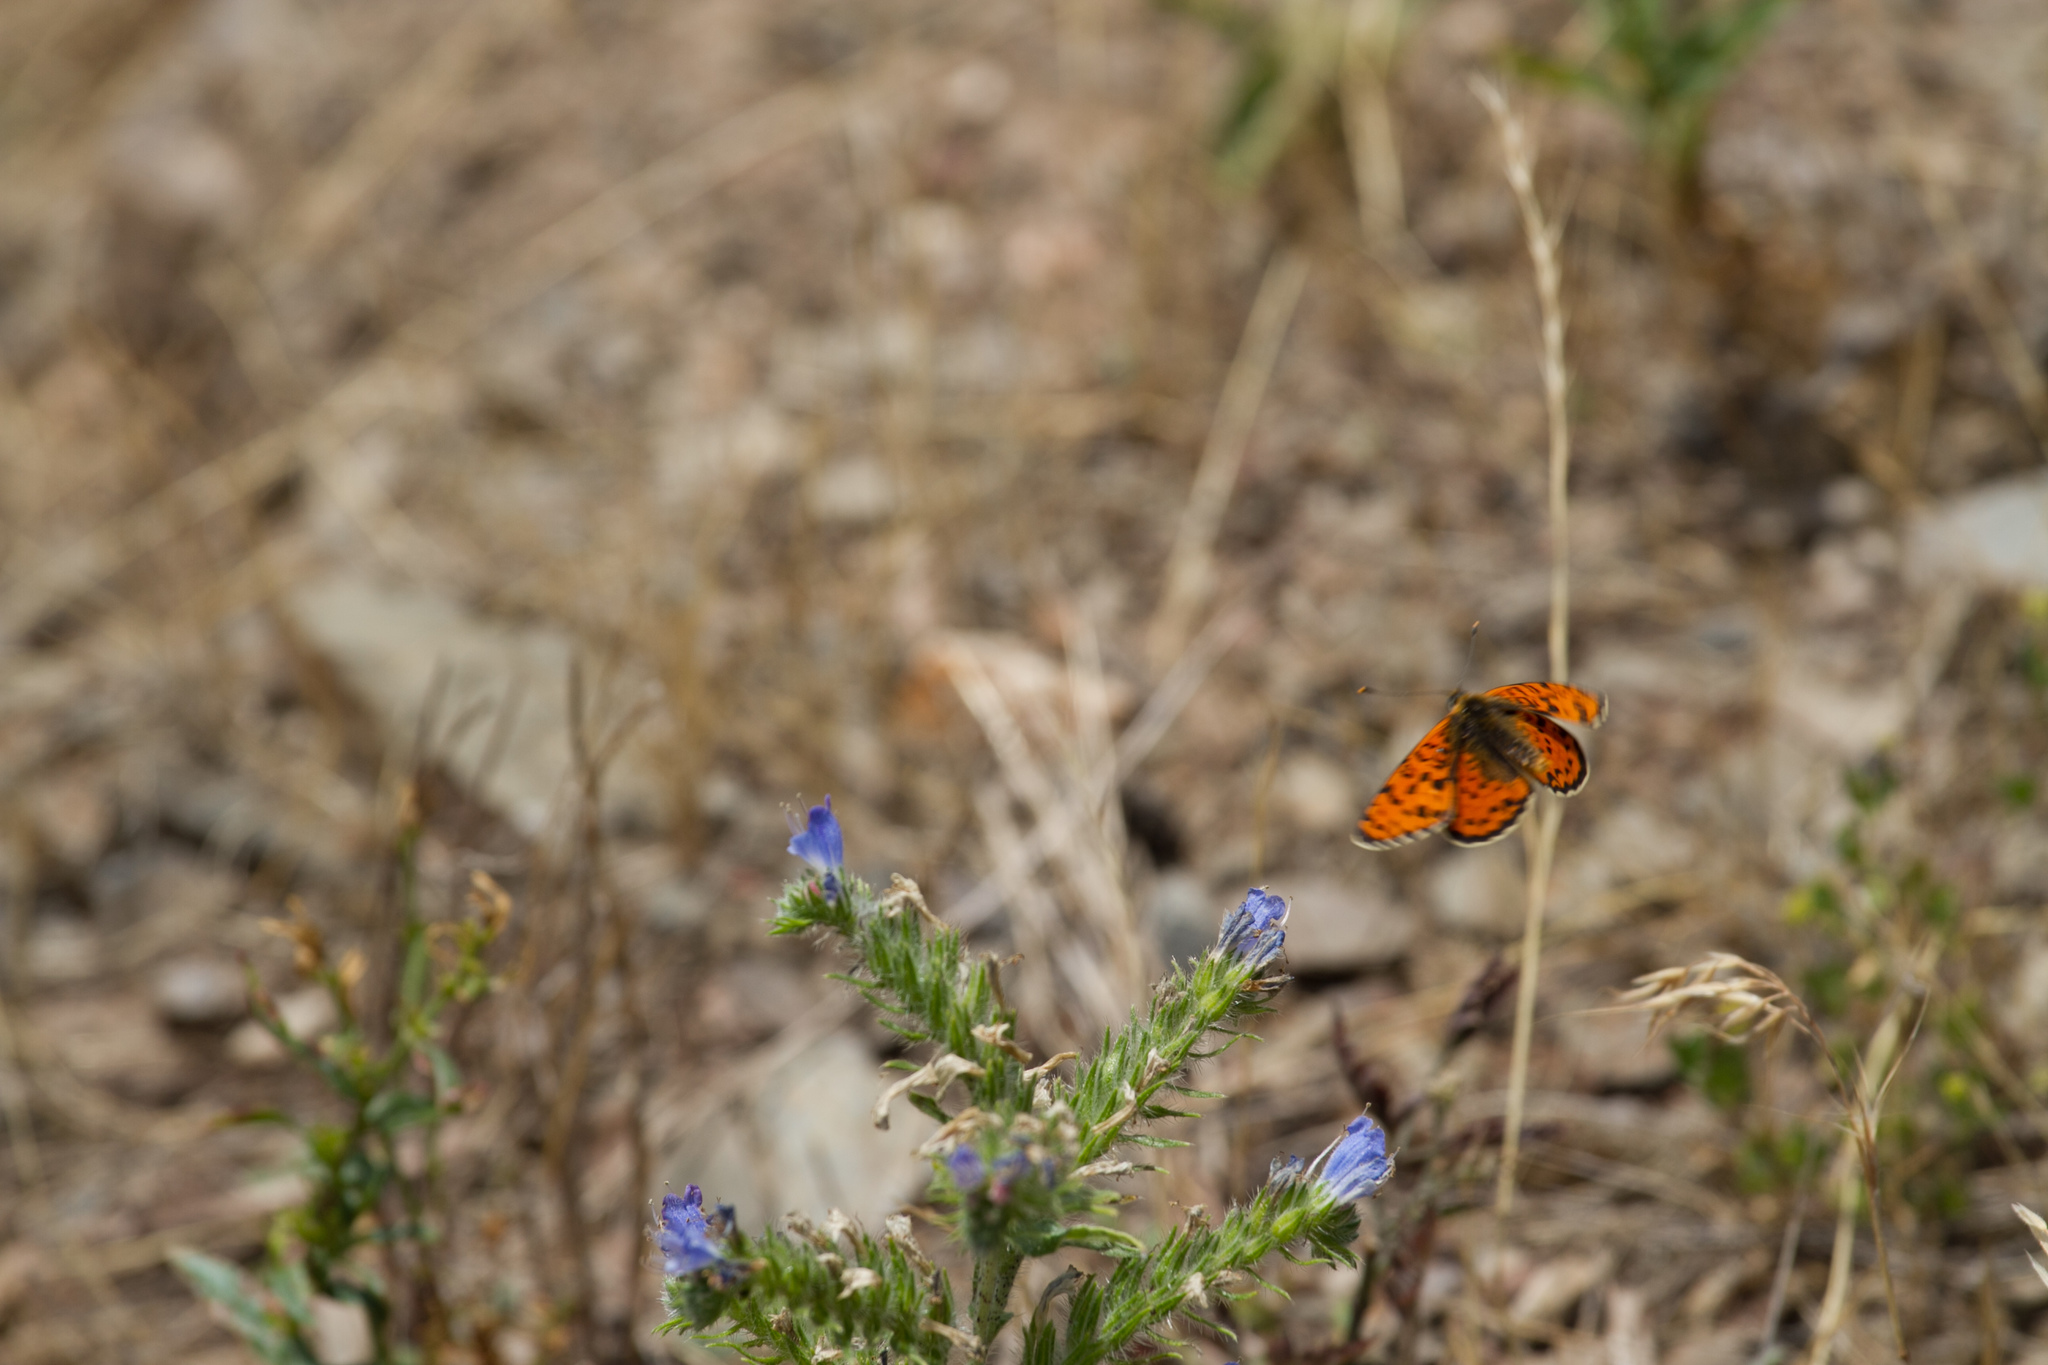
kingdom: Animalia
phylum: Arthropoda
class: Insecta
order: Lepidoptera
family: Nymphalidae
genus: Melitaea
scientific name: Melitaea didyma
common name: Spotted fritillary
